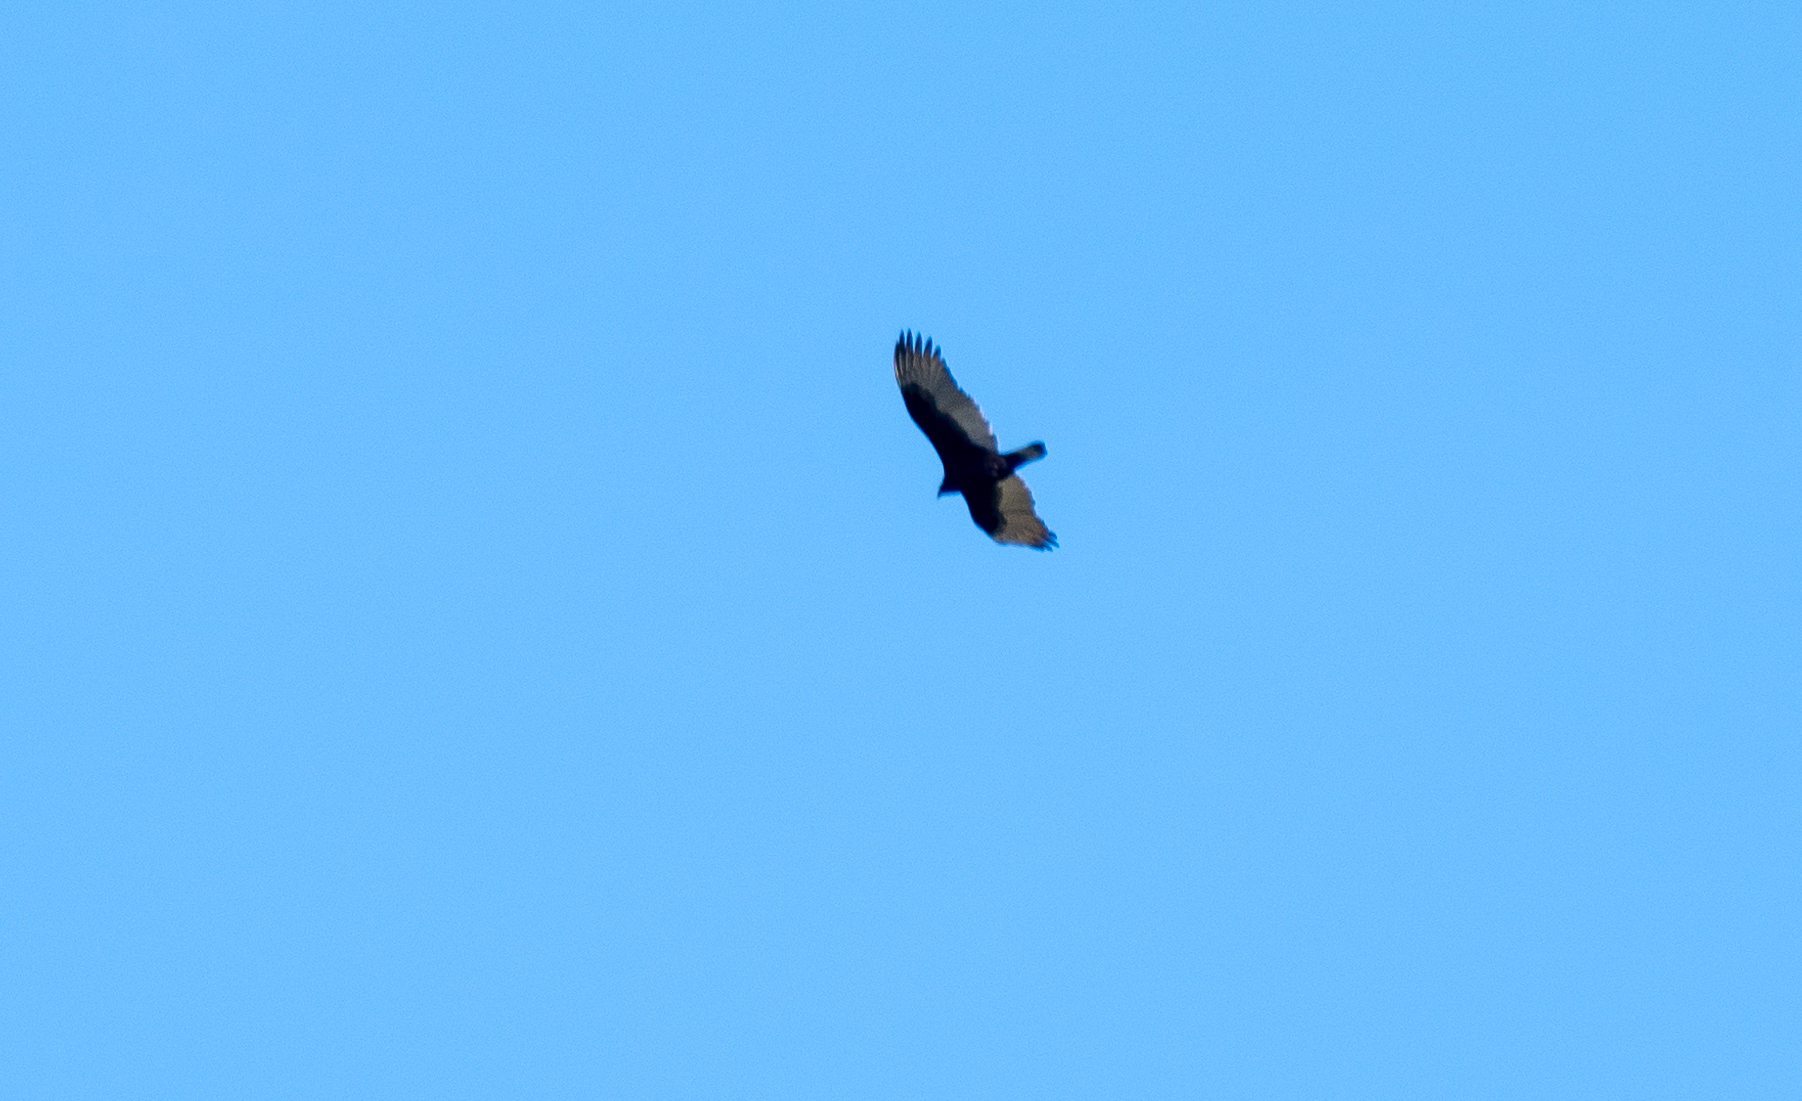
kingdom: Animalia
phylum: Chordata
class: Aves
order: Accipitriformes
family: Cathartidae
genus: Cathartes
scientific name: Cathartes aura
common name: Turkey vulture
